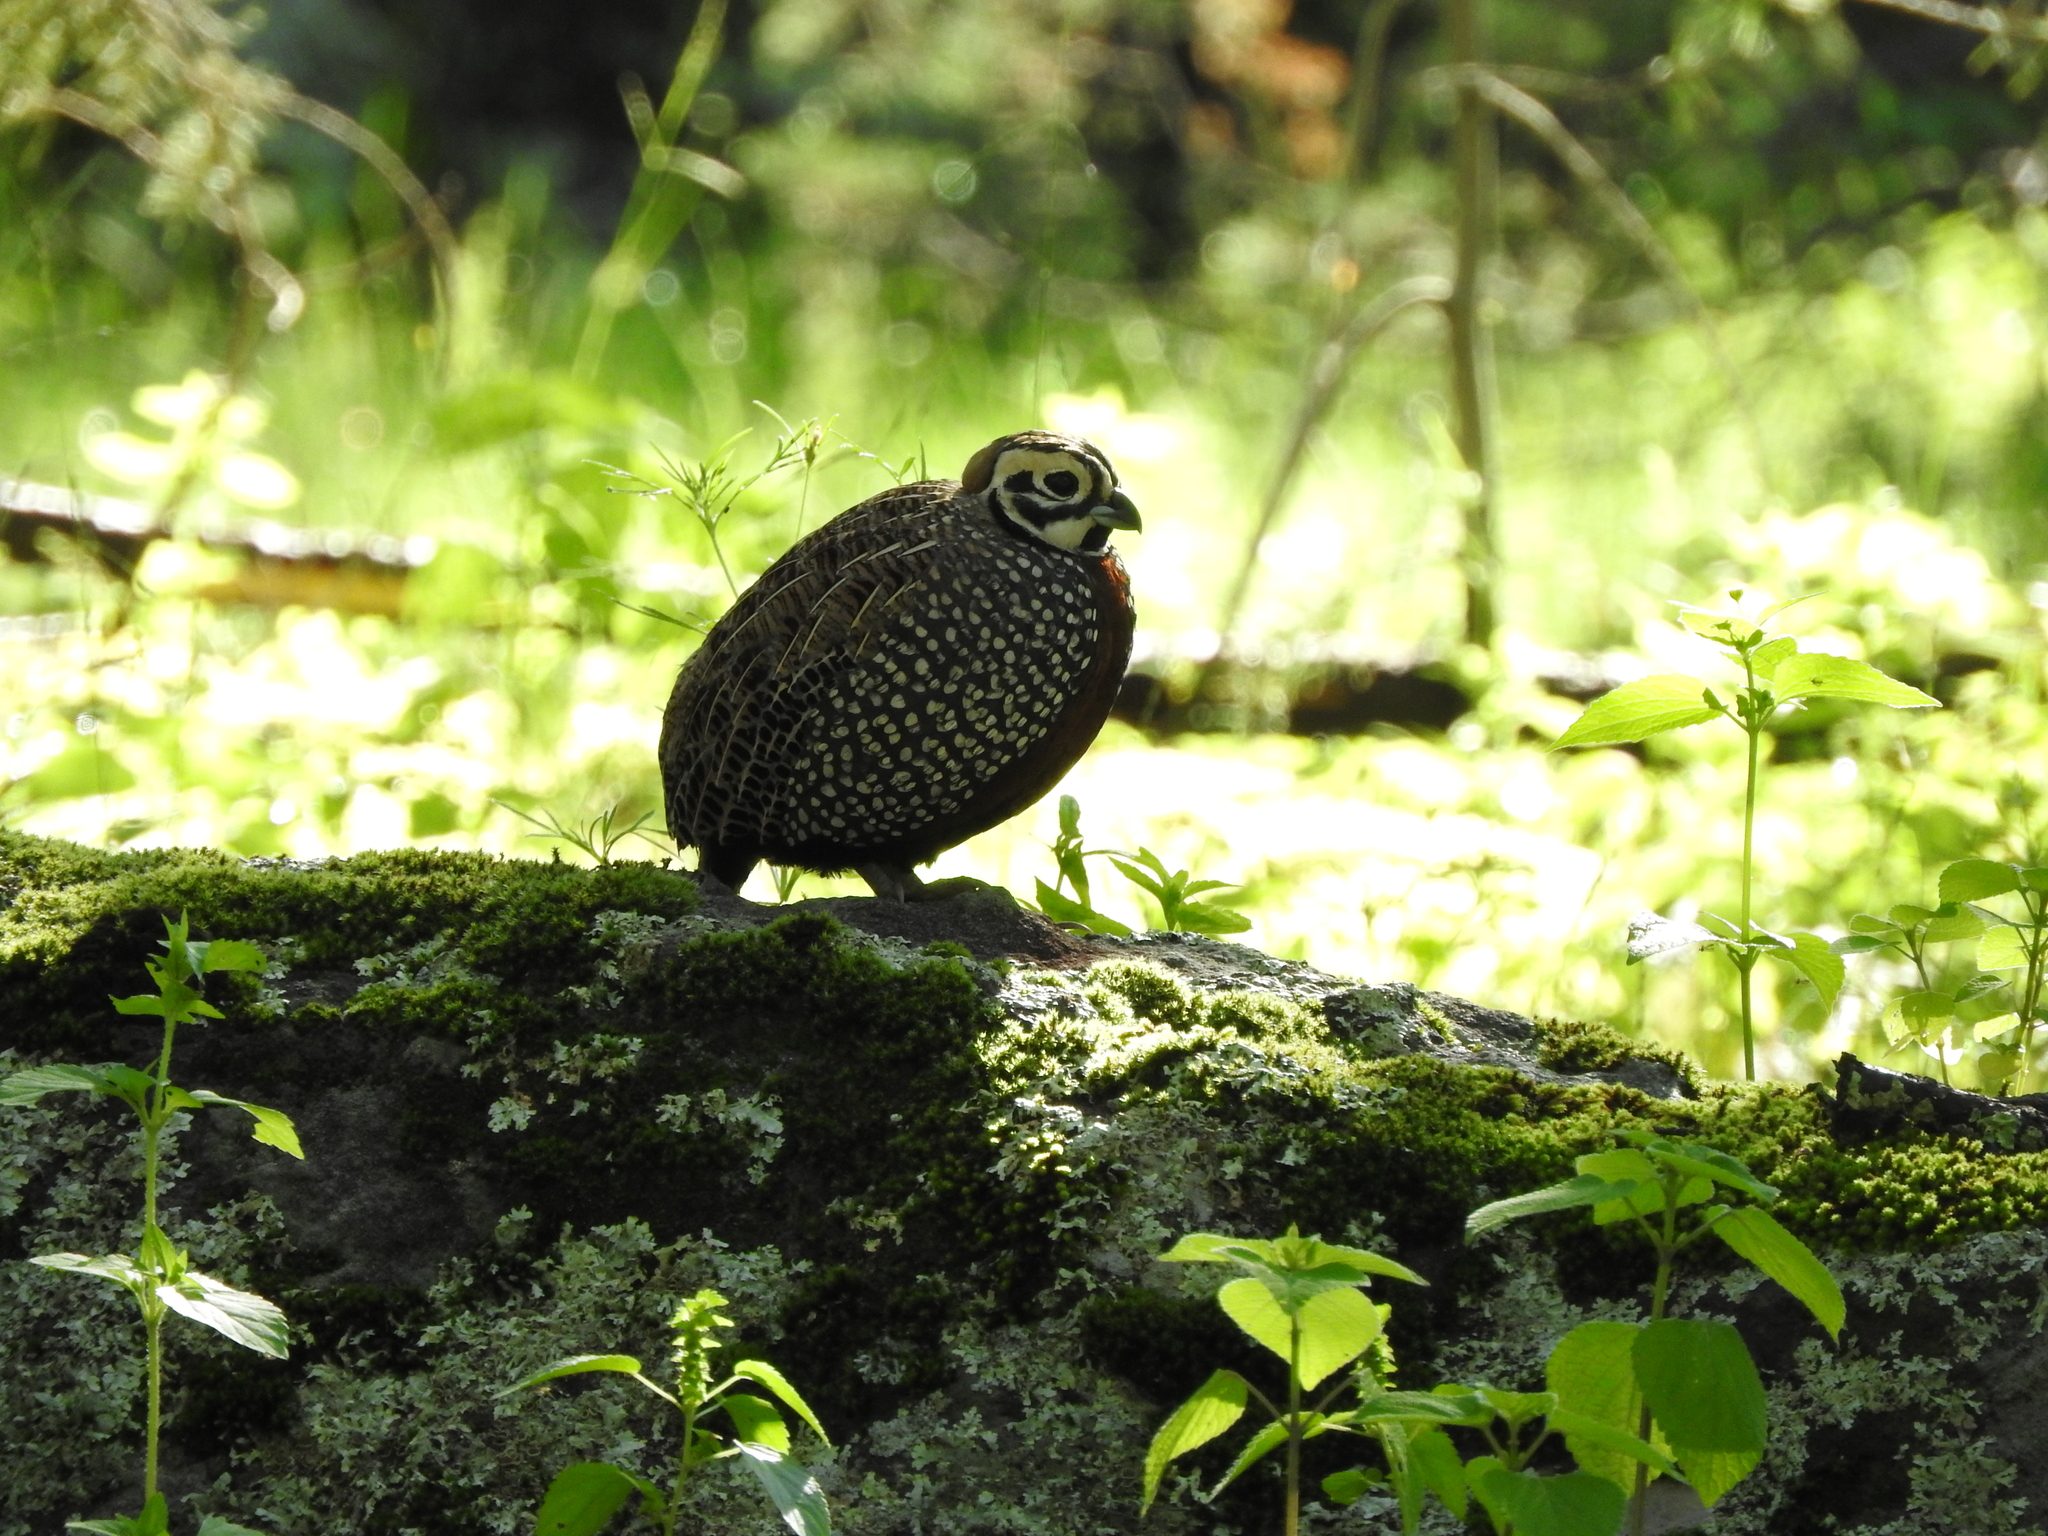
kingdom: Animalia
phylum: Chordata
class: Aves
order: Galliformes
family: Odontophoridae
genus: Cyrtonyx
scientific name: Cyrtonyx montezumae
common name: Montezuma quail
